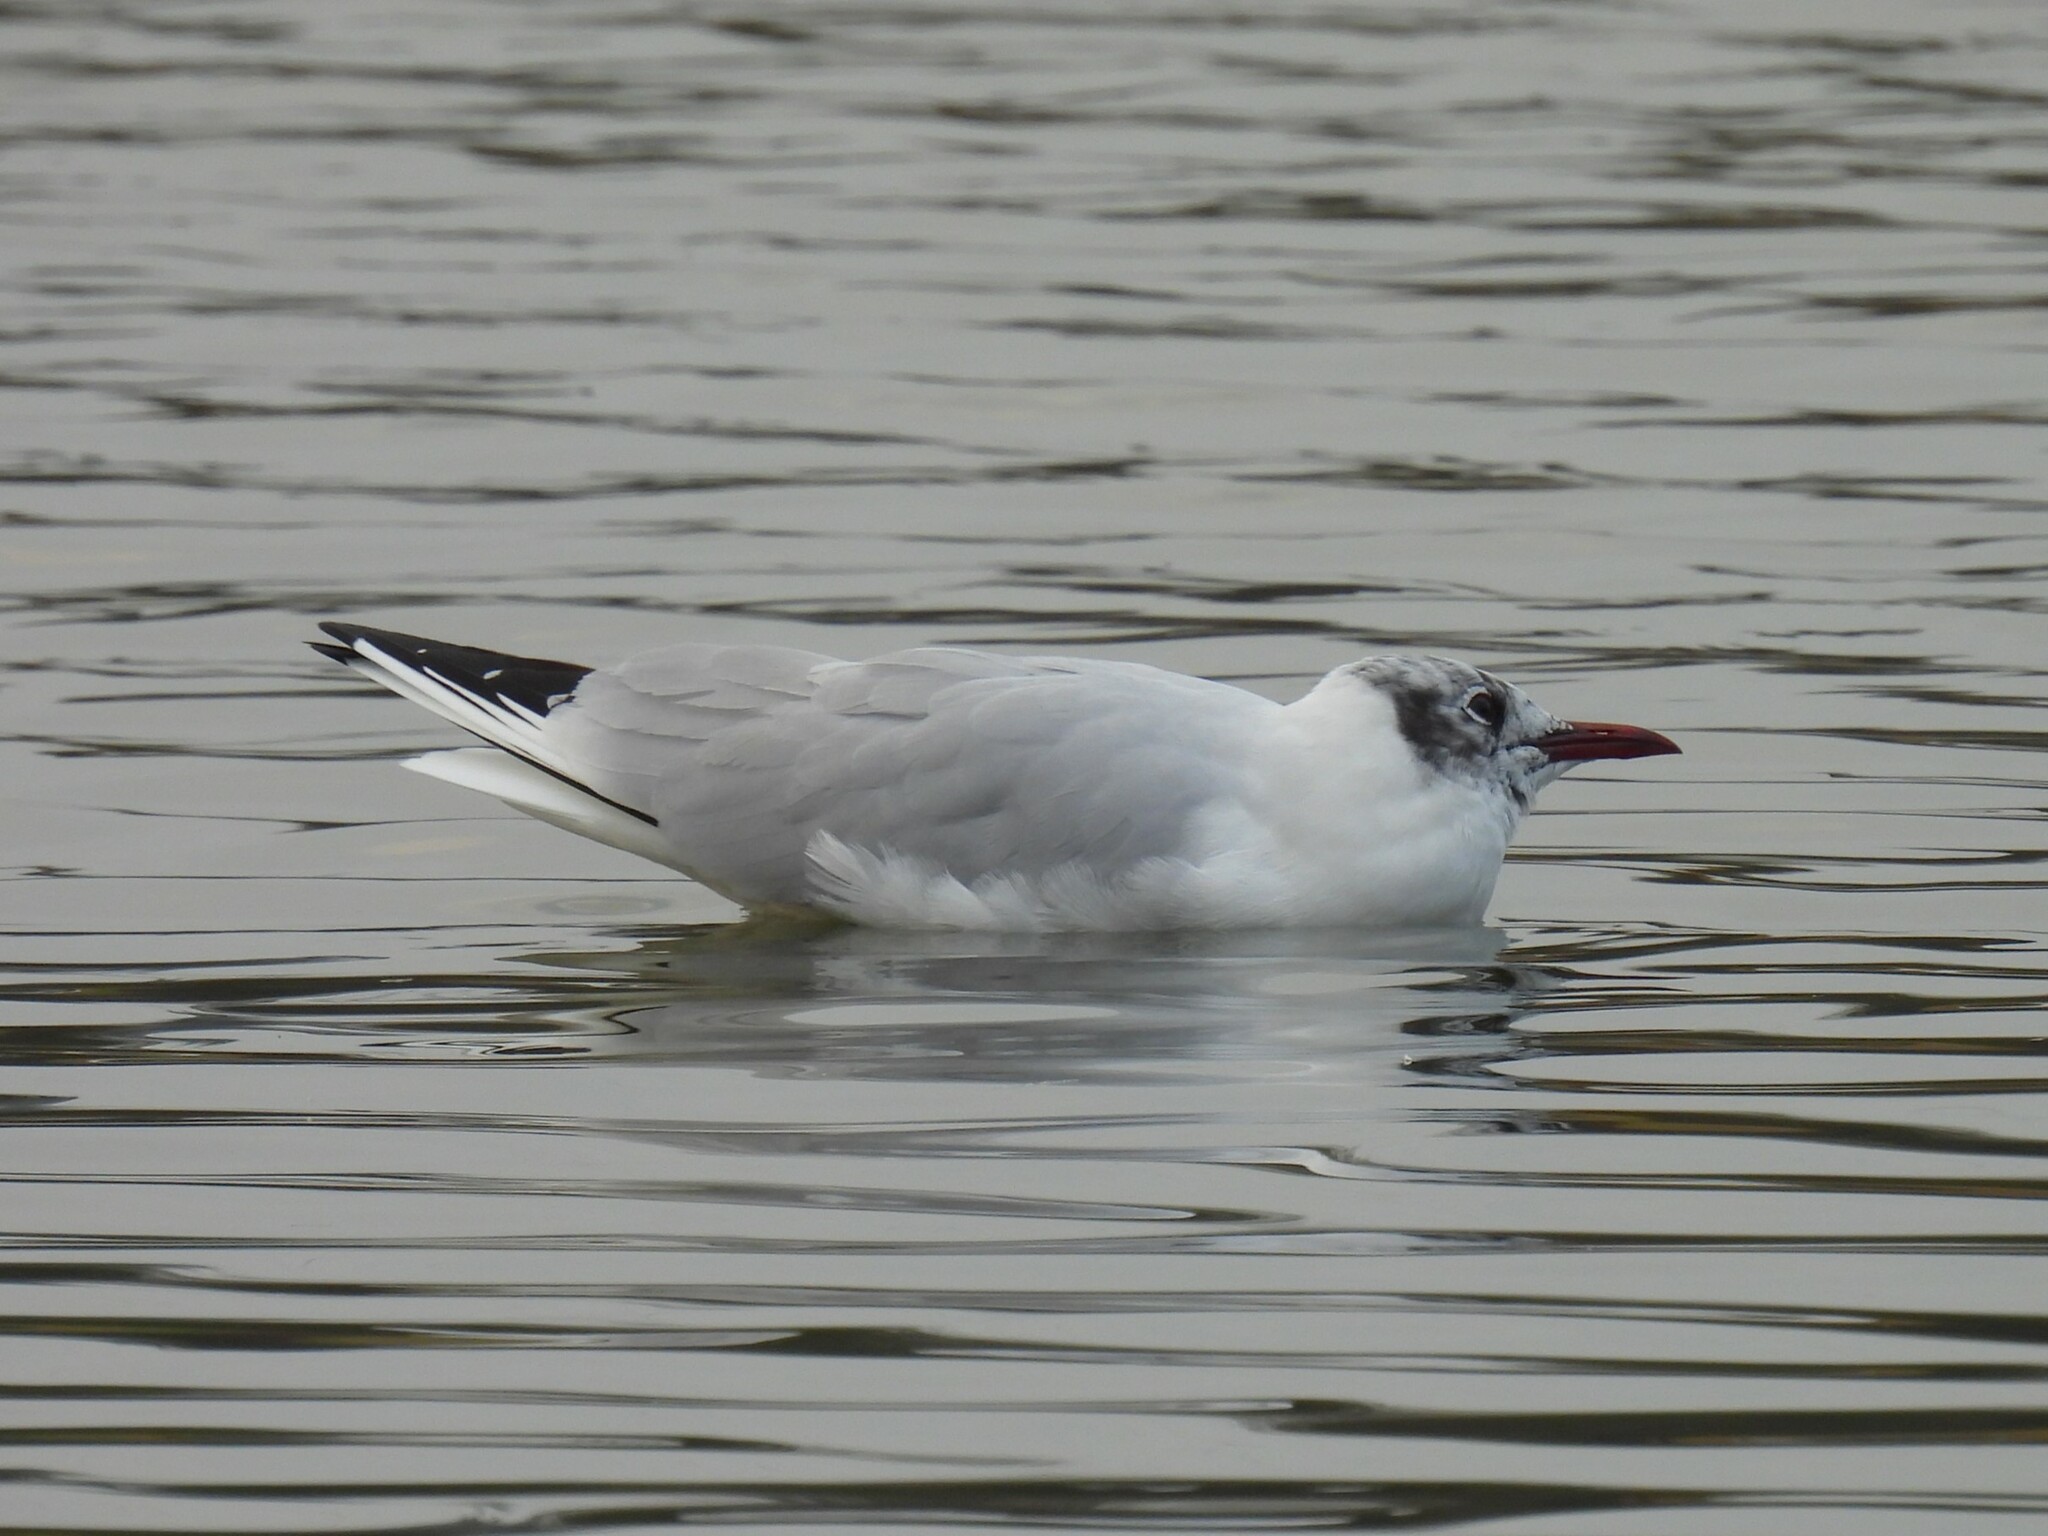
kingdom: Animalia
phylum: Chordata
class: Aves
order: Charadriiformes
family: Laridae
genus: Chroicocephalus
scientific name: Chroicocephalus ridibundus
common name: Black-headed gull
